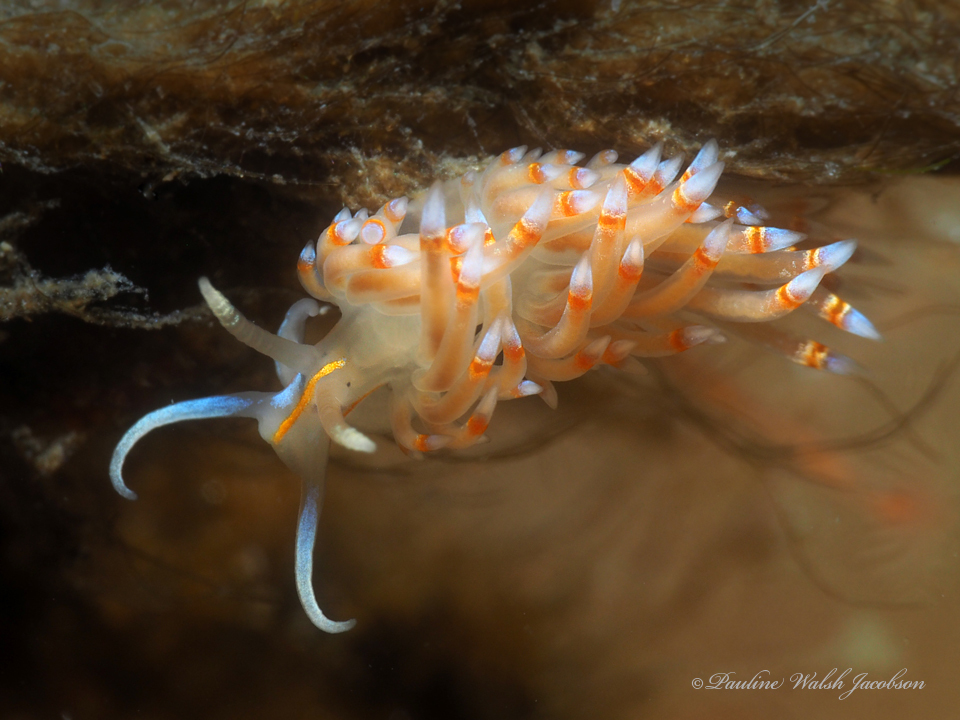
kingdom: Animalia
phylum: Mollusca
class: Gastropoda
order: Nudibranchia
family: Myrrhinidae
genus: Dondice
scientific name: Dondice jupiteriensis
